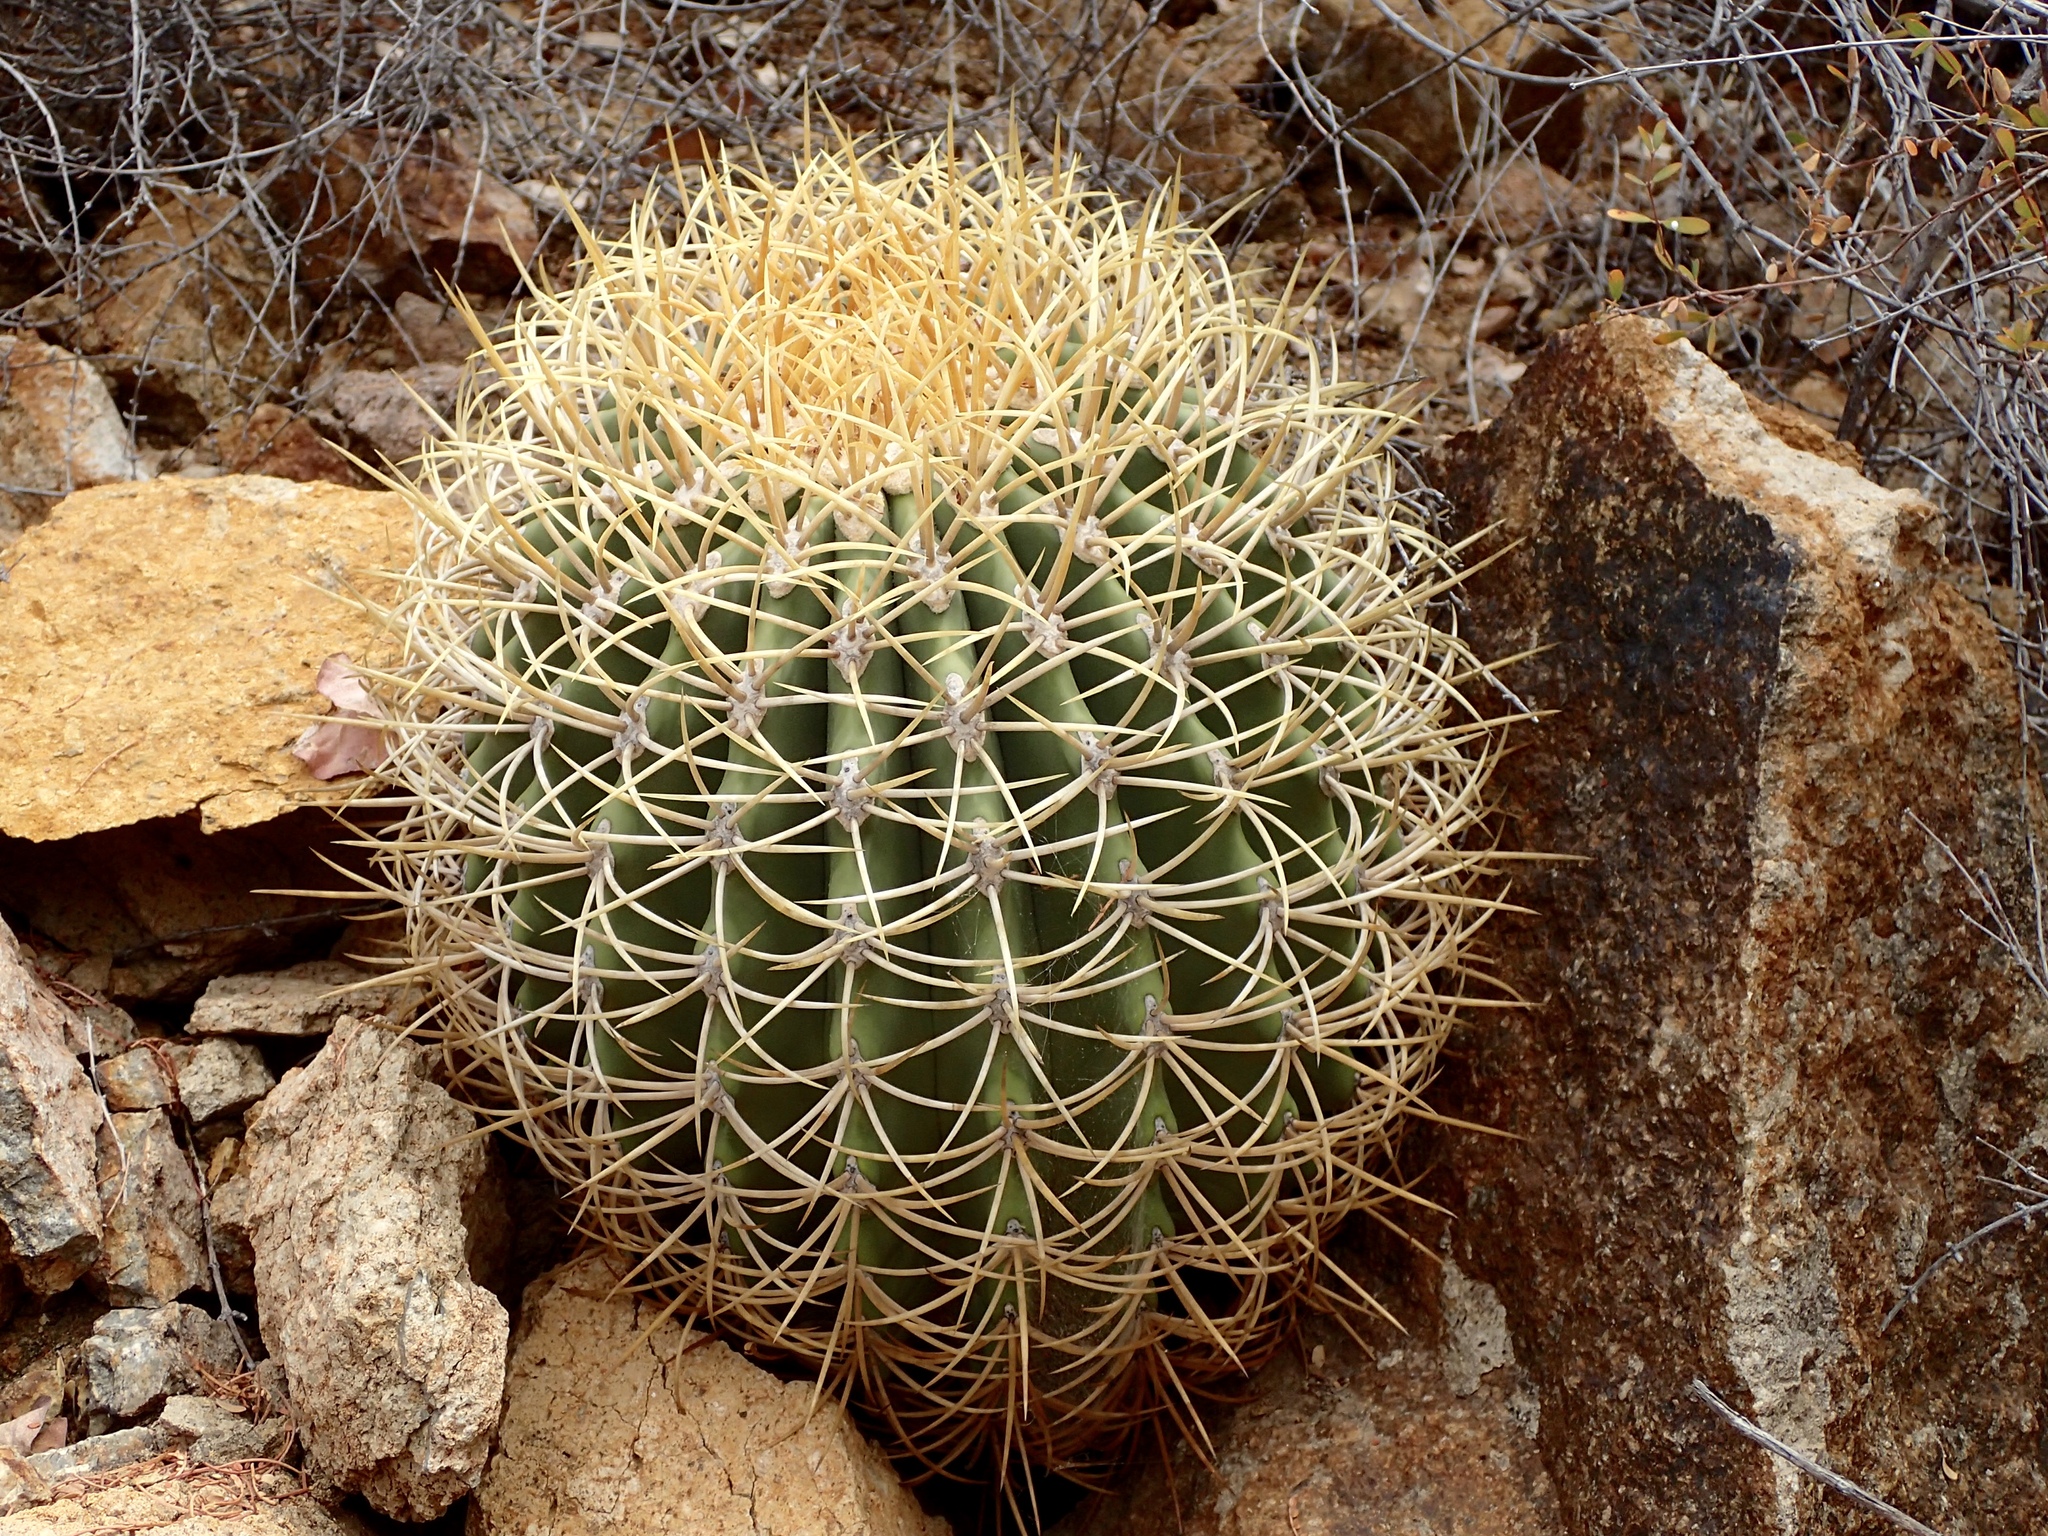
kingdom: Plantae
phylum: Tracheophyta
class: Magnoliopsida
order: Caryophyllales
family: Cactaceae
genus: Ferocactus
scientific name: Ferocactus diguetii
